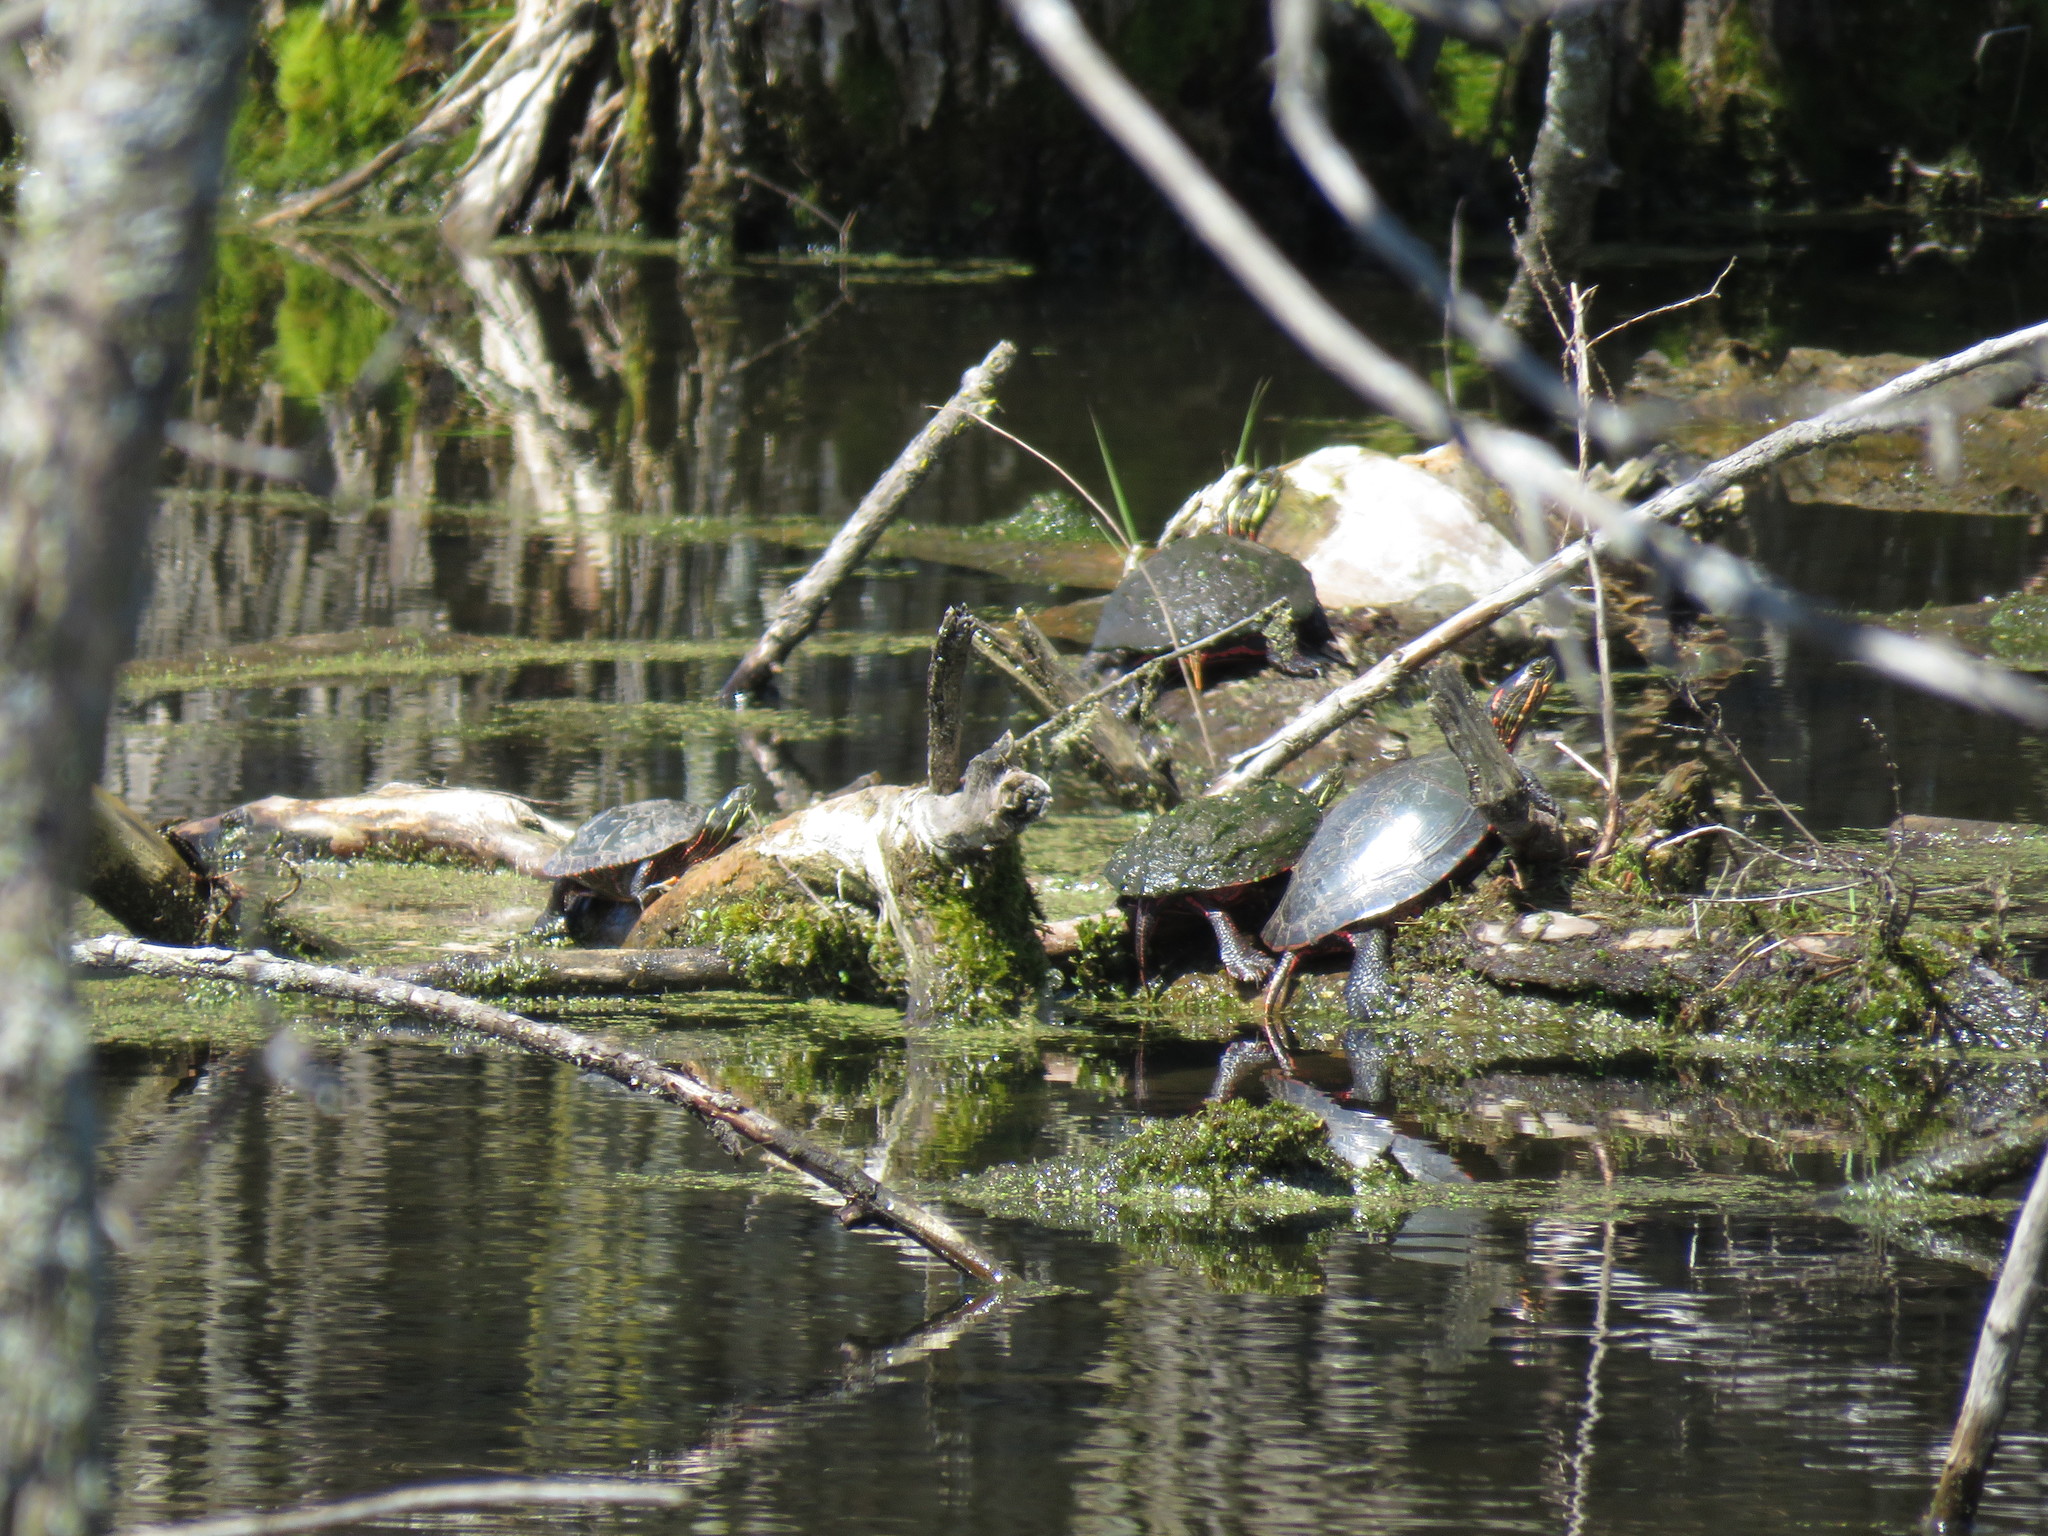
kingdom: Animalia
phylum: Chordata
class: Testudines
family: Emydidae
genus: Chrysemys
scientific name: Chrysemys picta
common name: Painted turtle
